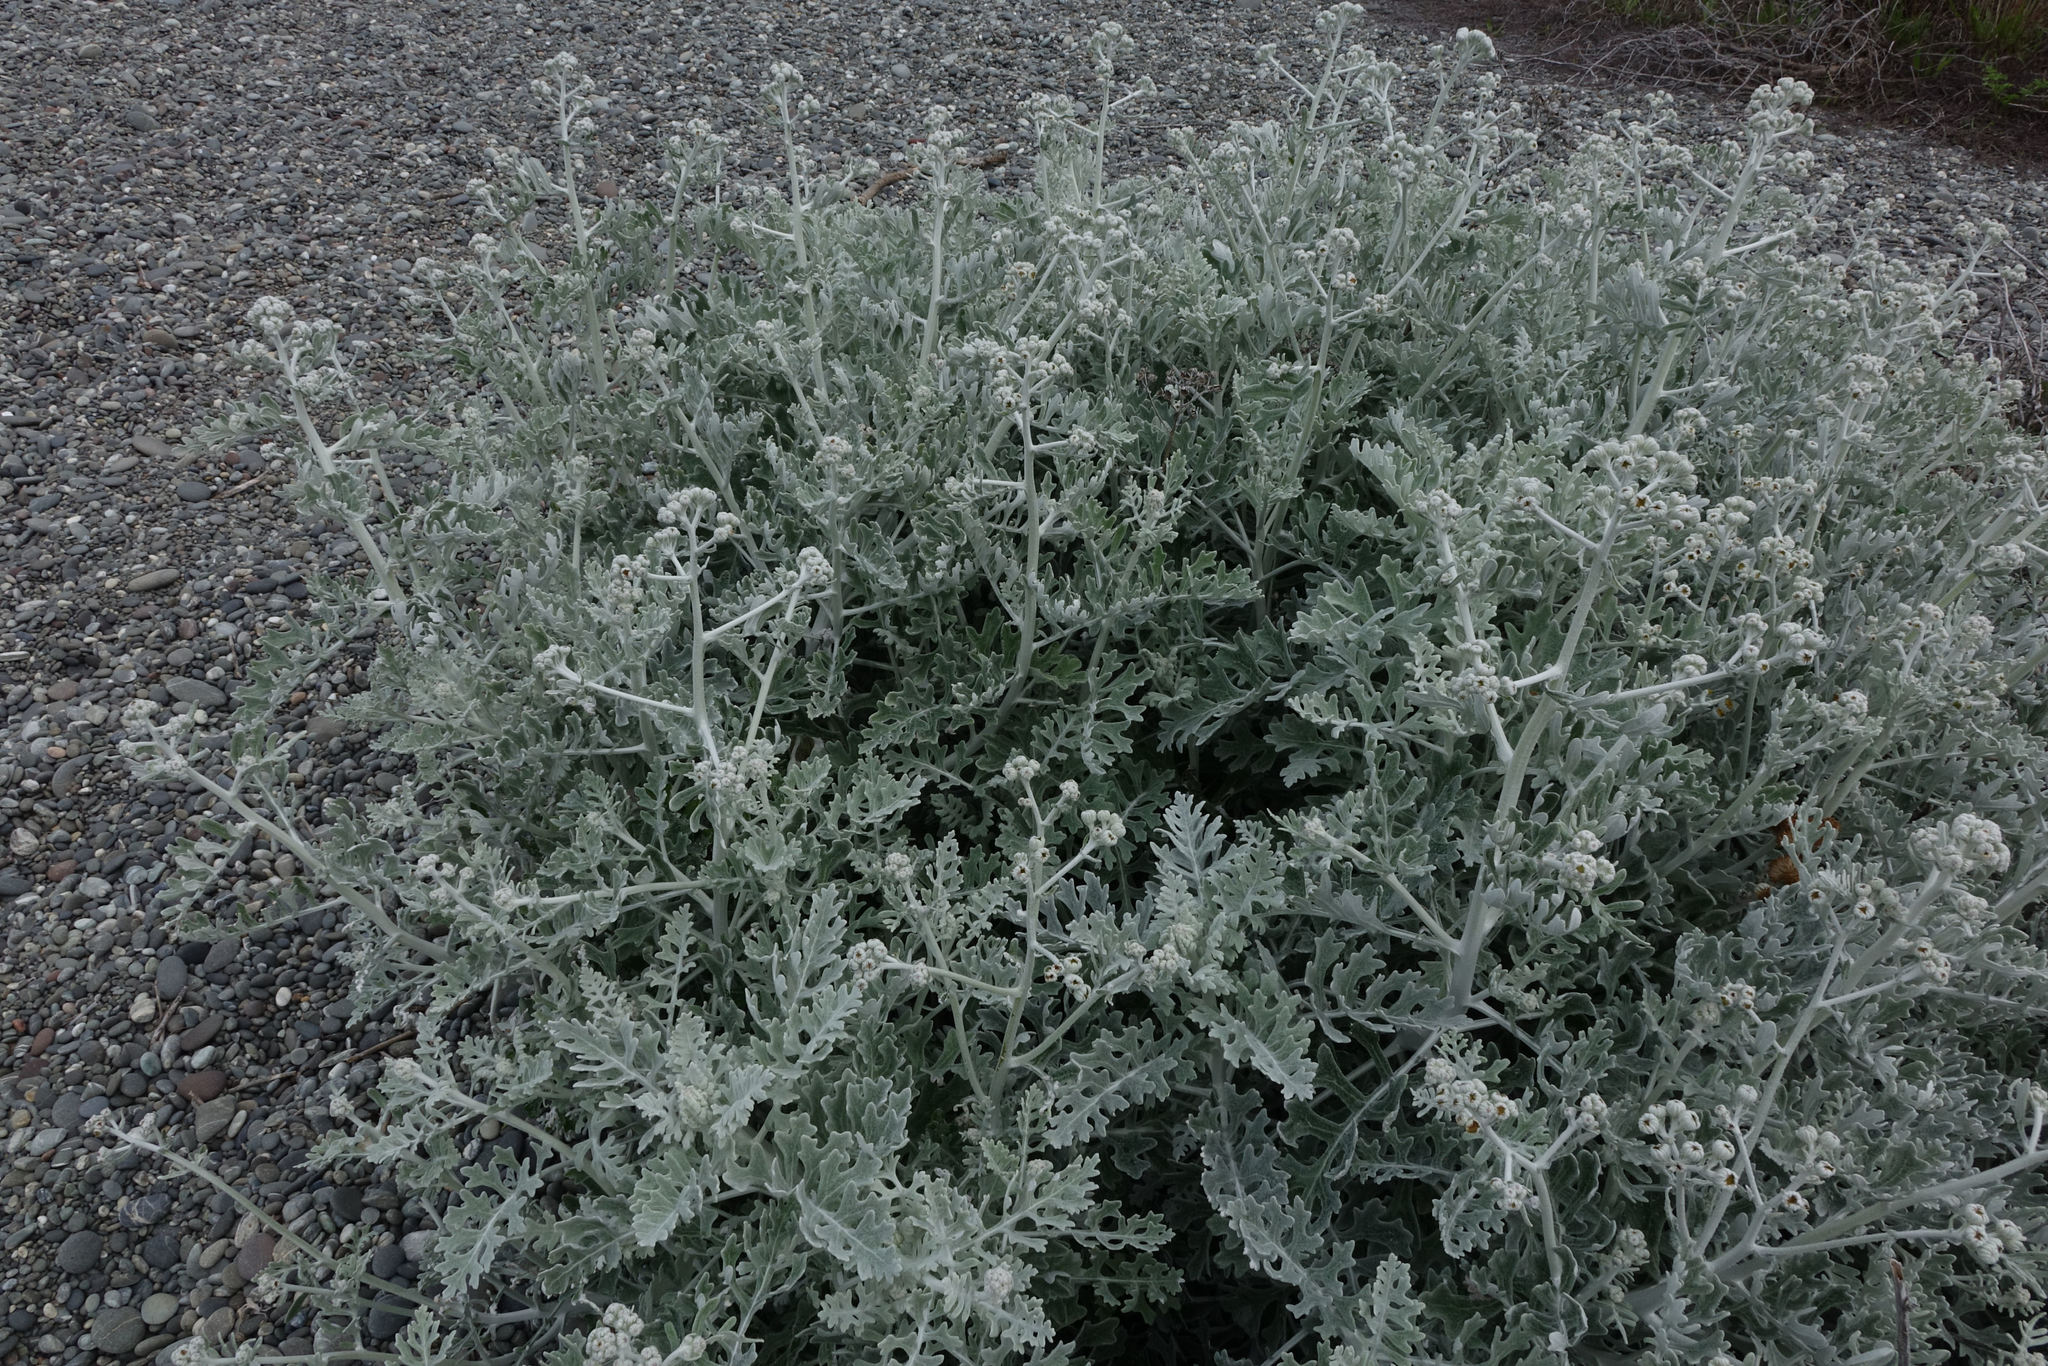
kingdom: Plantae
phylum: Tracheophyta
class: Magnoliopsida
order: Asterales
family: Asteraceae
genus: Jacobaea
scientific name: Jacobaea maritima
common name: Silver ragwort
